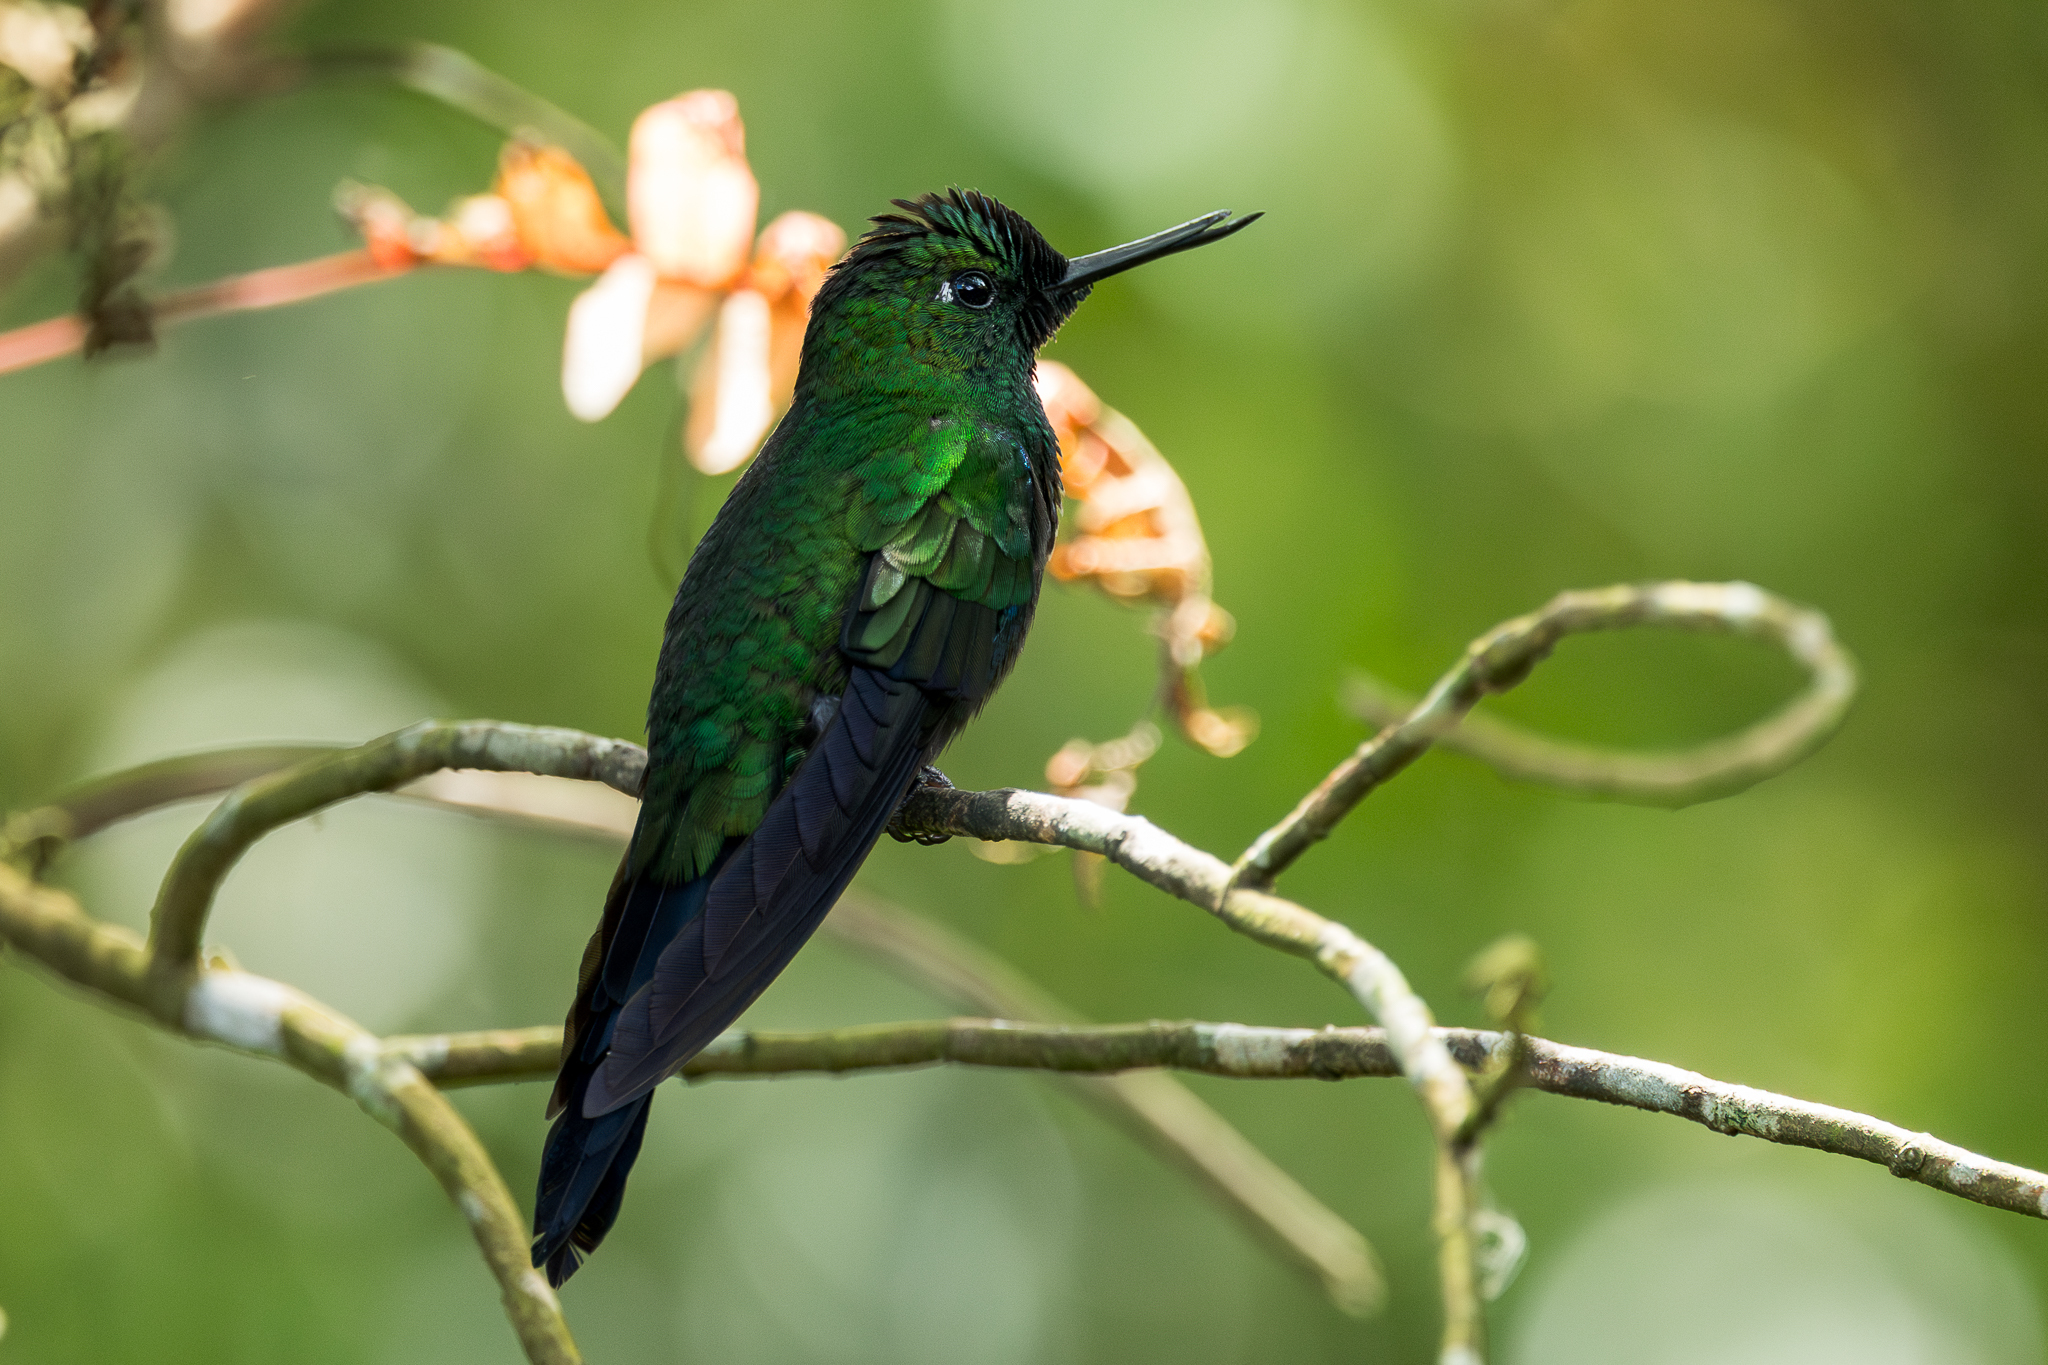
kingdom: Animalia
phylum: Chordata
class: Aves
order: Apodiformes
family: Trochilidae
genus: Heliodoxa
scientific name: Heliodoxa jacula
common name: Green-crowned brilliant
